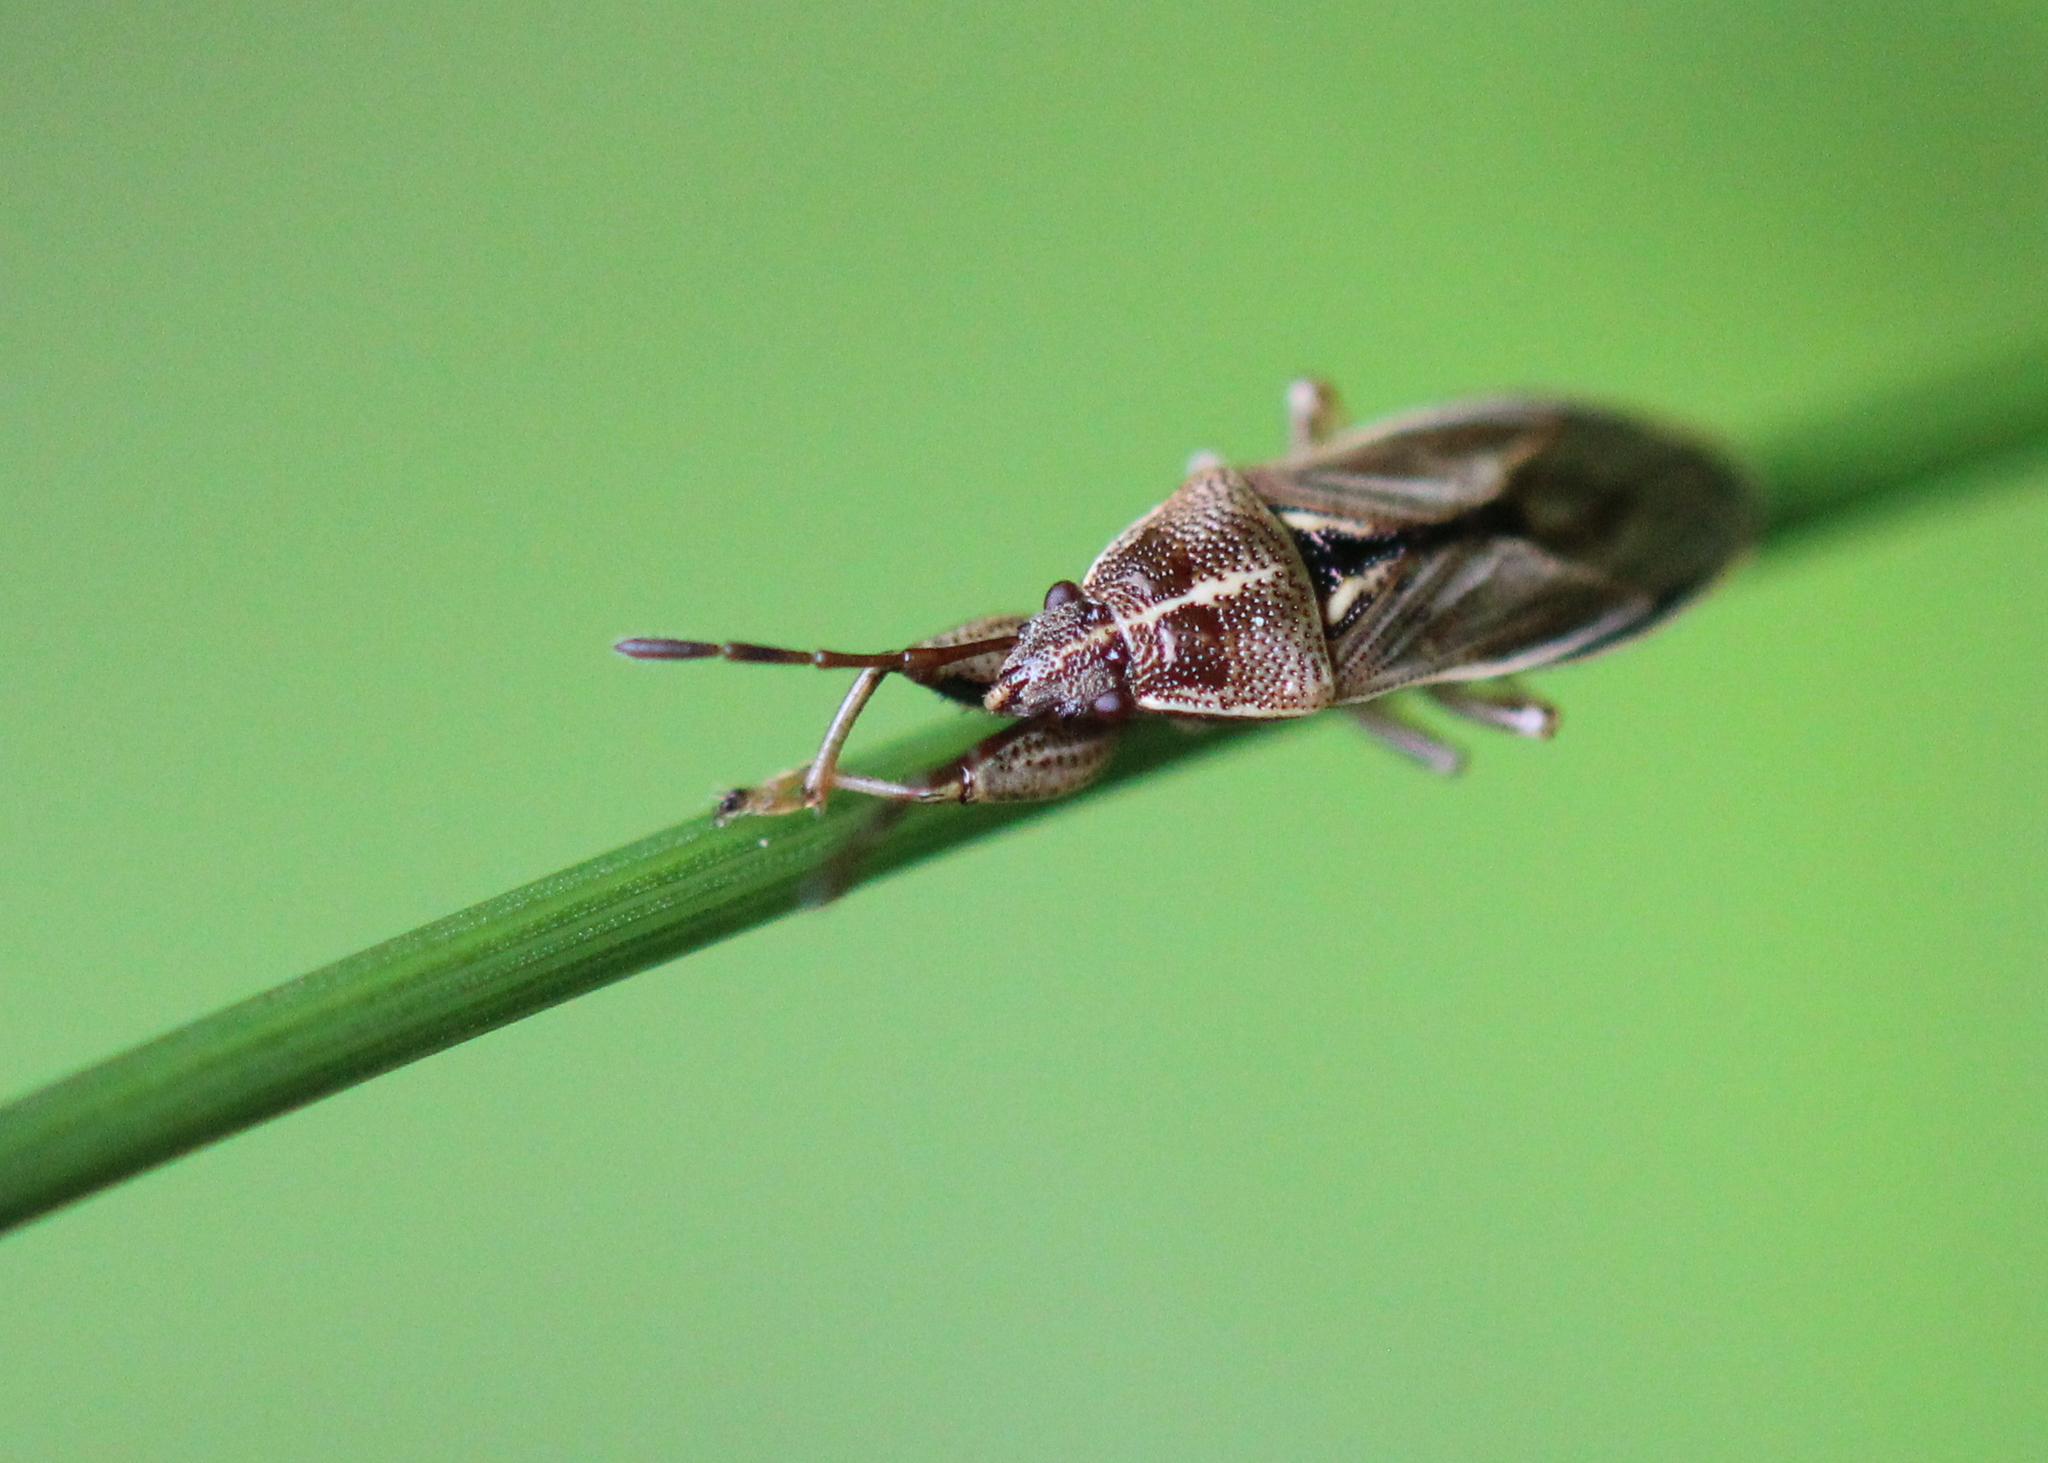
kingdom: Animalia
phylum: Arthropoda
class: Insecta
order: Hemiptera
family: Pachygronthidae
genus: Oedancala
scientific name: Oedancala dorsalis
